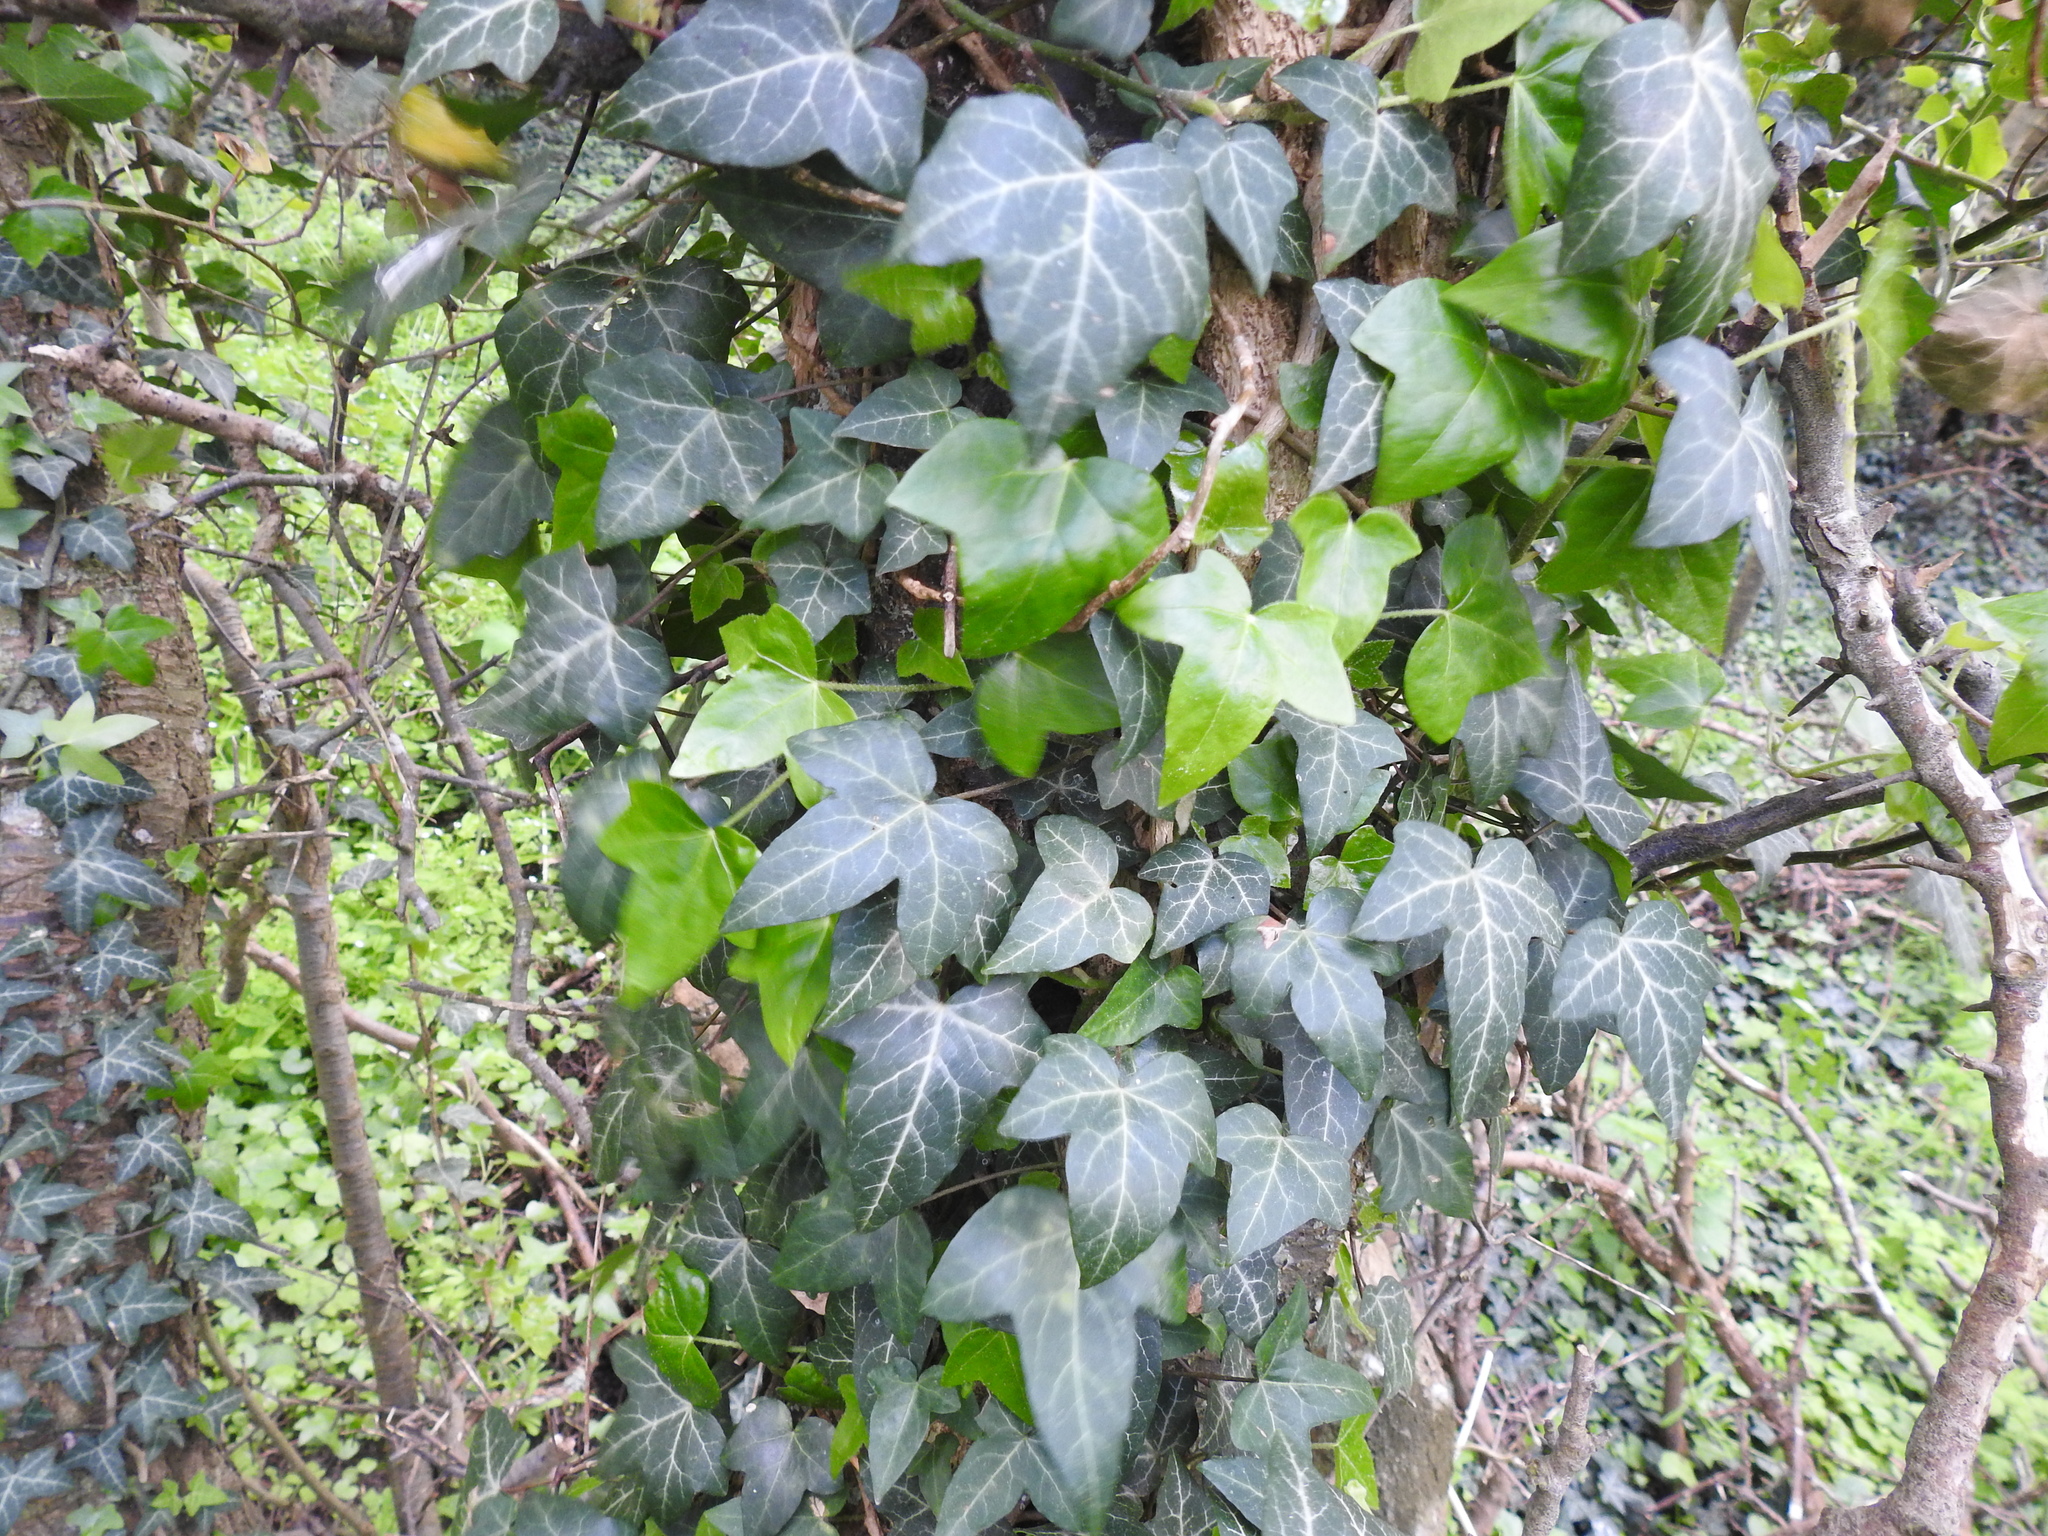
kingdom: Plantae
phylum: Tracheophyta
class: Magnoliopsida
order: Apiales
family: Araliaceae
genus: Hedera
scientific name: Hedera helix
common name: Ivy
